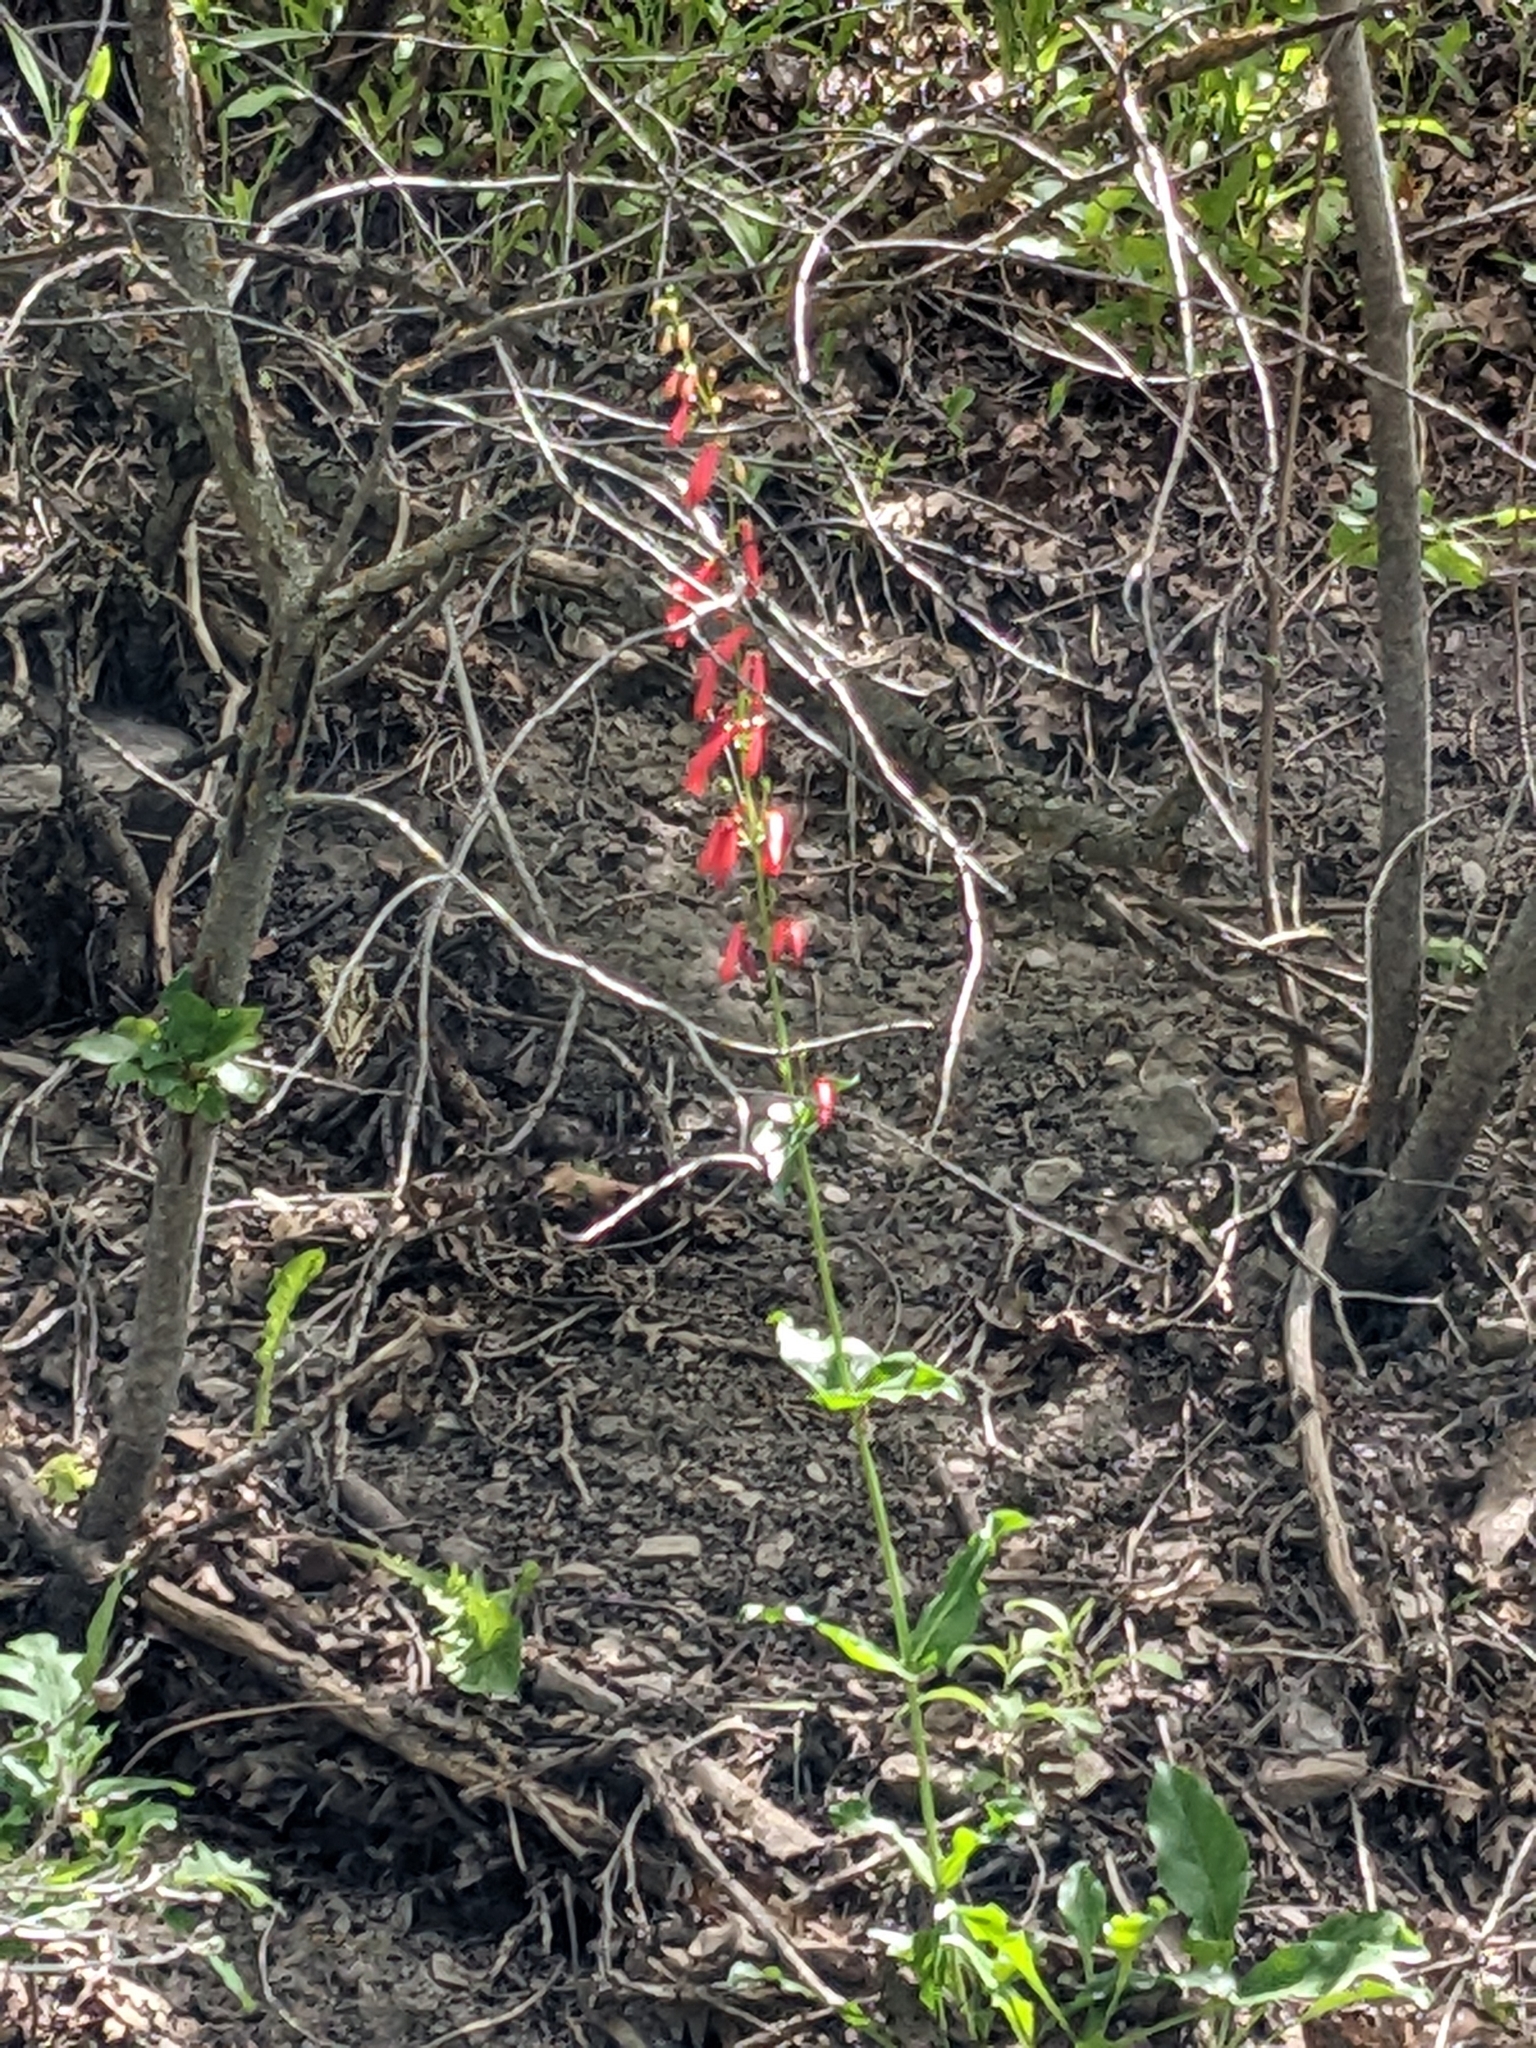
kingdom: Plantae
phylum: Tracheophyta
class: Magnoliopsida
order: Lamiales
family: Plantaginaceae
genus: Penstemon
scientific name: Penstemon eatonii
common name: Eaton's penstemon
